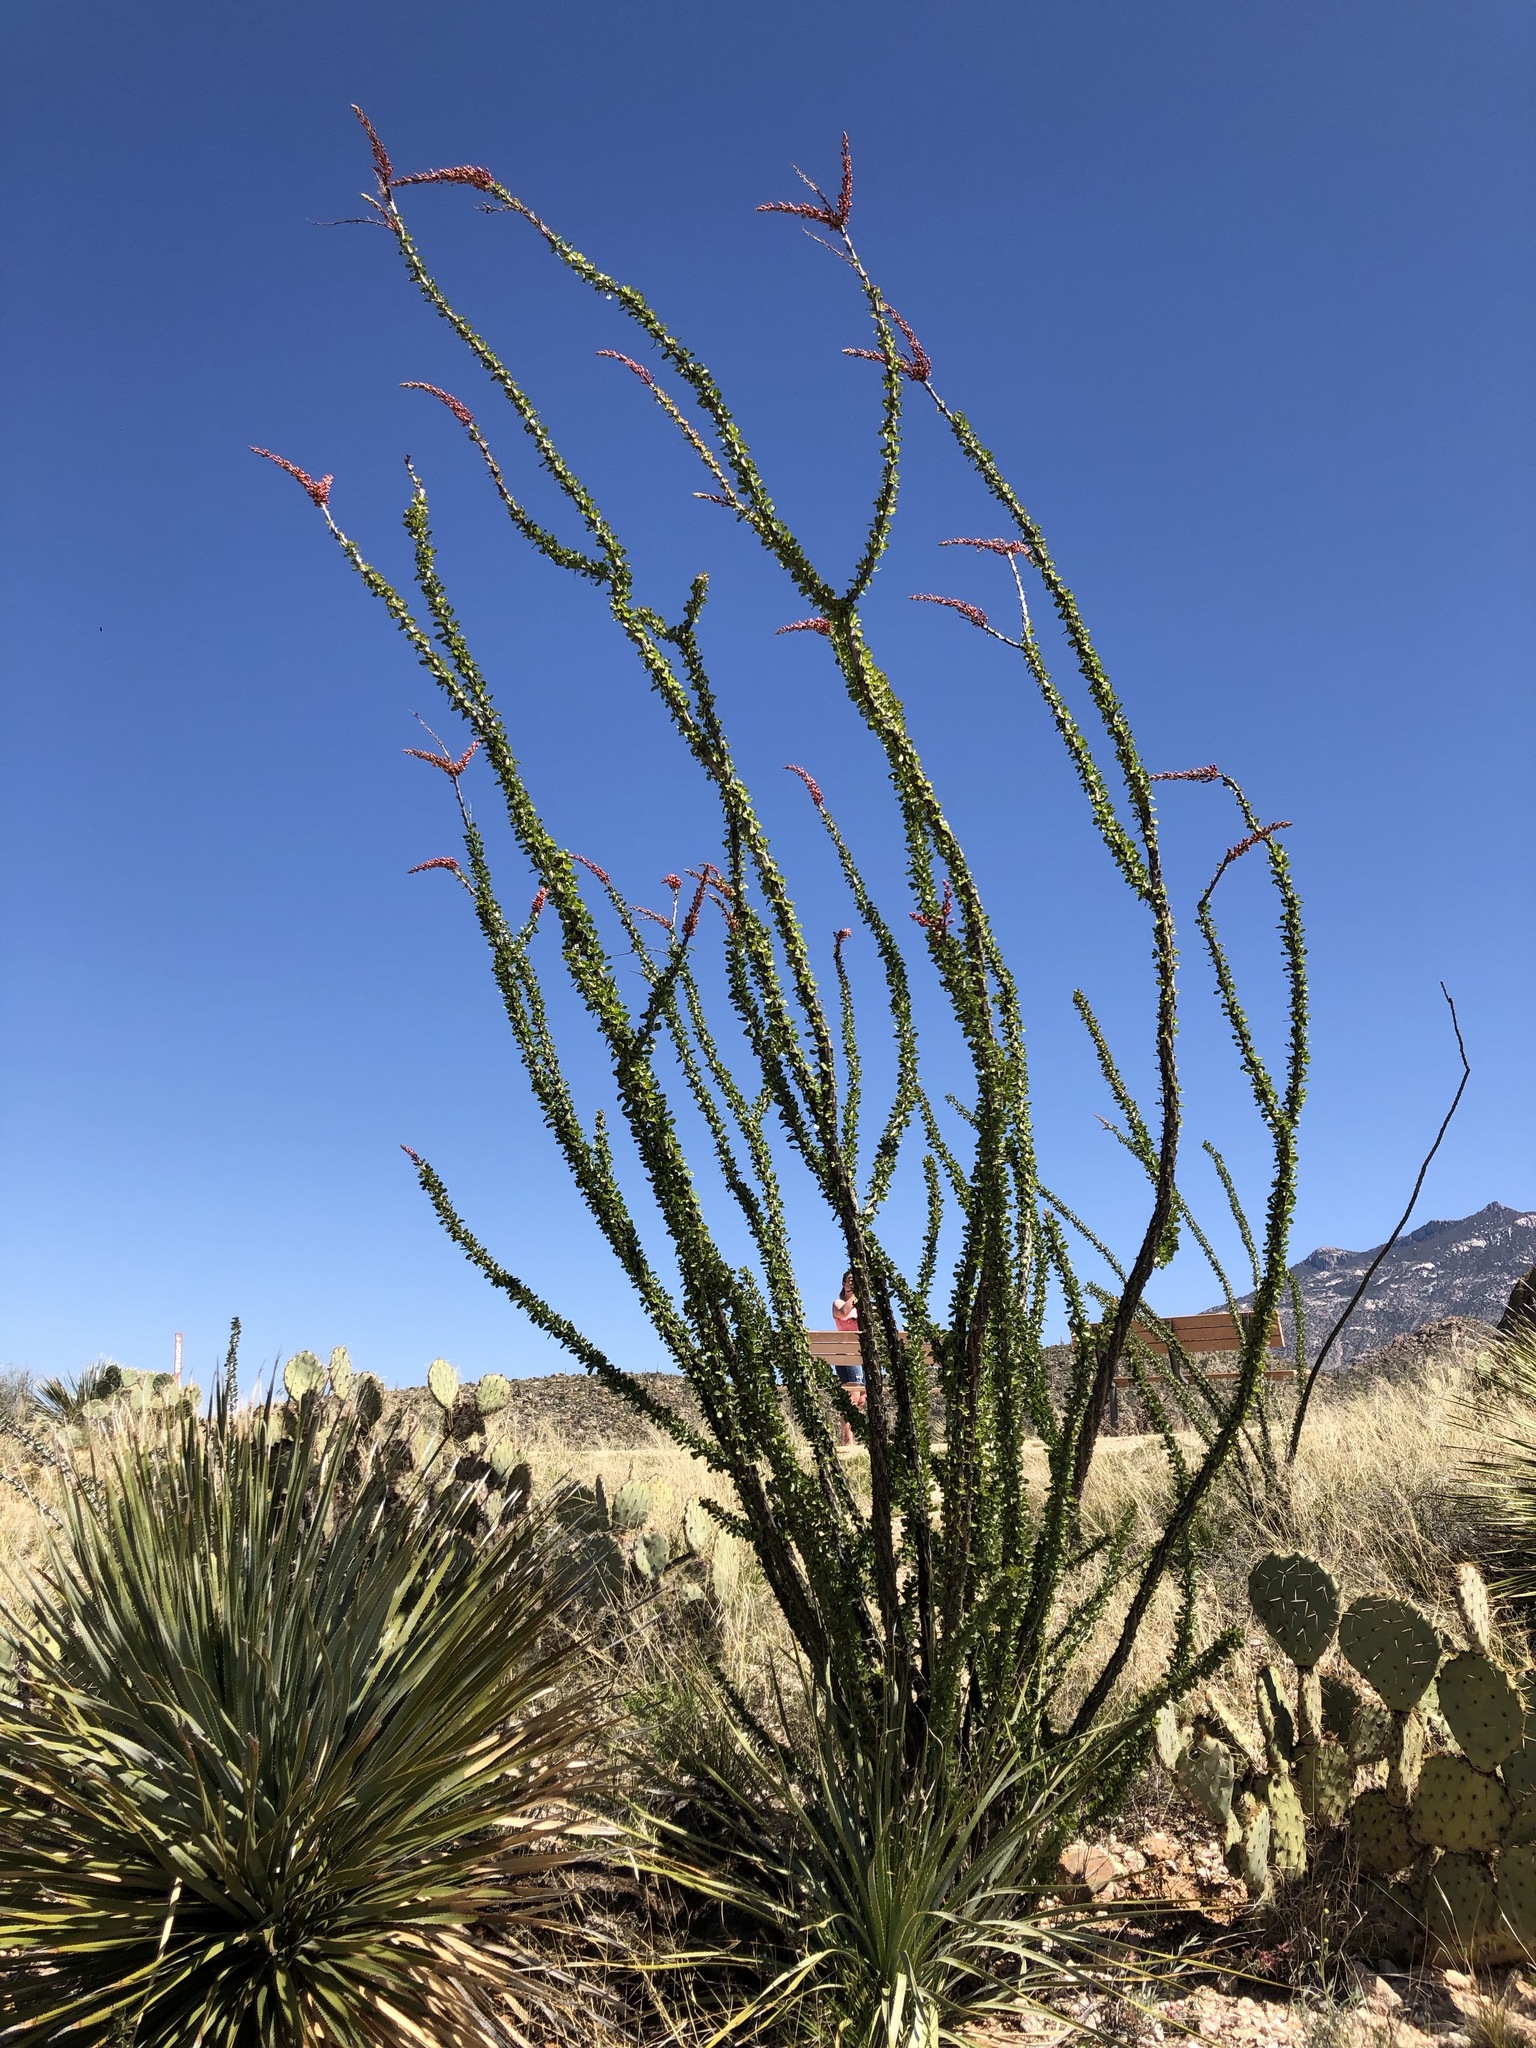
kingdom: Plantae
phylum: Tracheophyta
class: Magnoliopsida
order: Ericales
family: Fouquieriaceae
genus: Fouquieria
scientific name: Fouquieria splendens
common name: Vine-cactus
